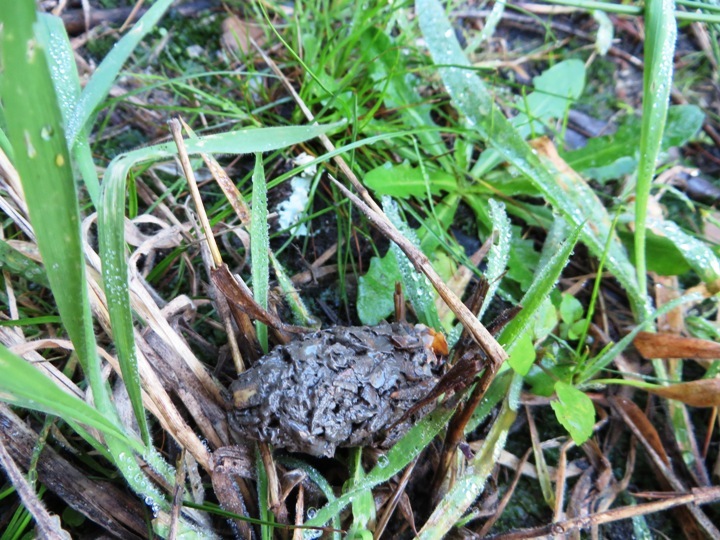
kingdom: Animalia
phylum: Chordata
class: Mammalia
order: Carnivora
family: Herpestidae
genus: Atilax
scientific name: Atilax paludinosus
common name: Marsh mongoose
